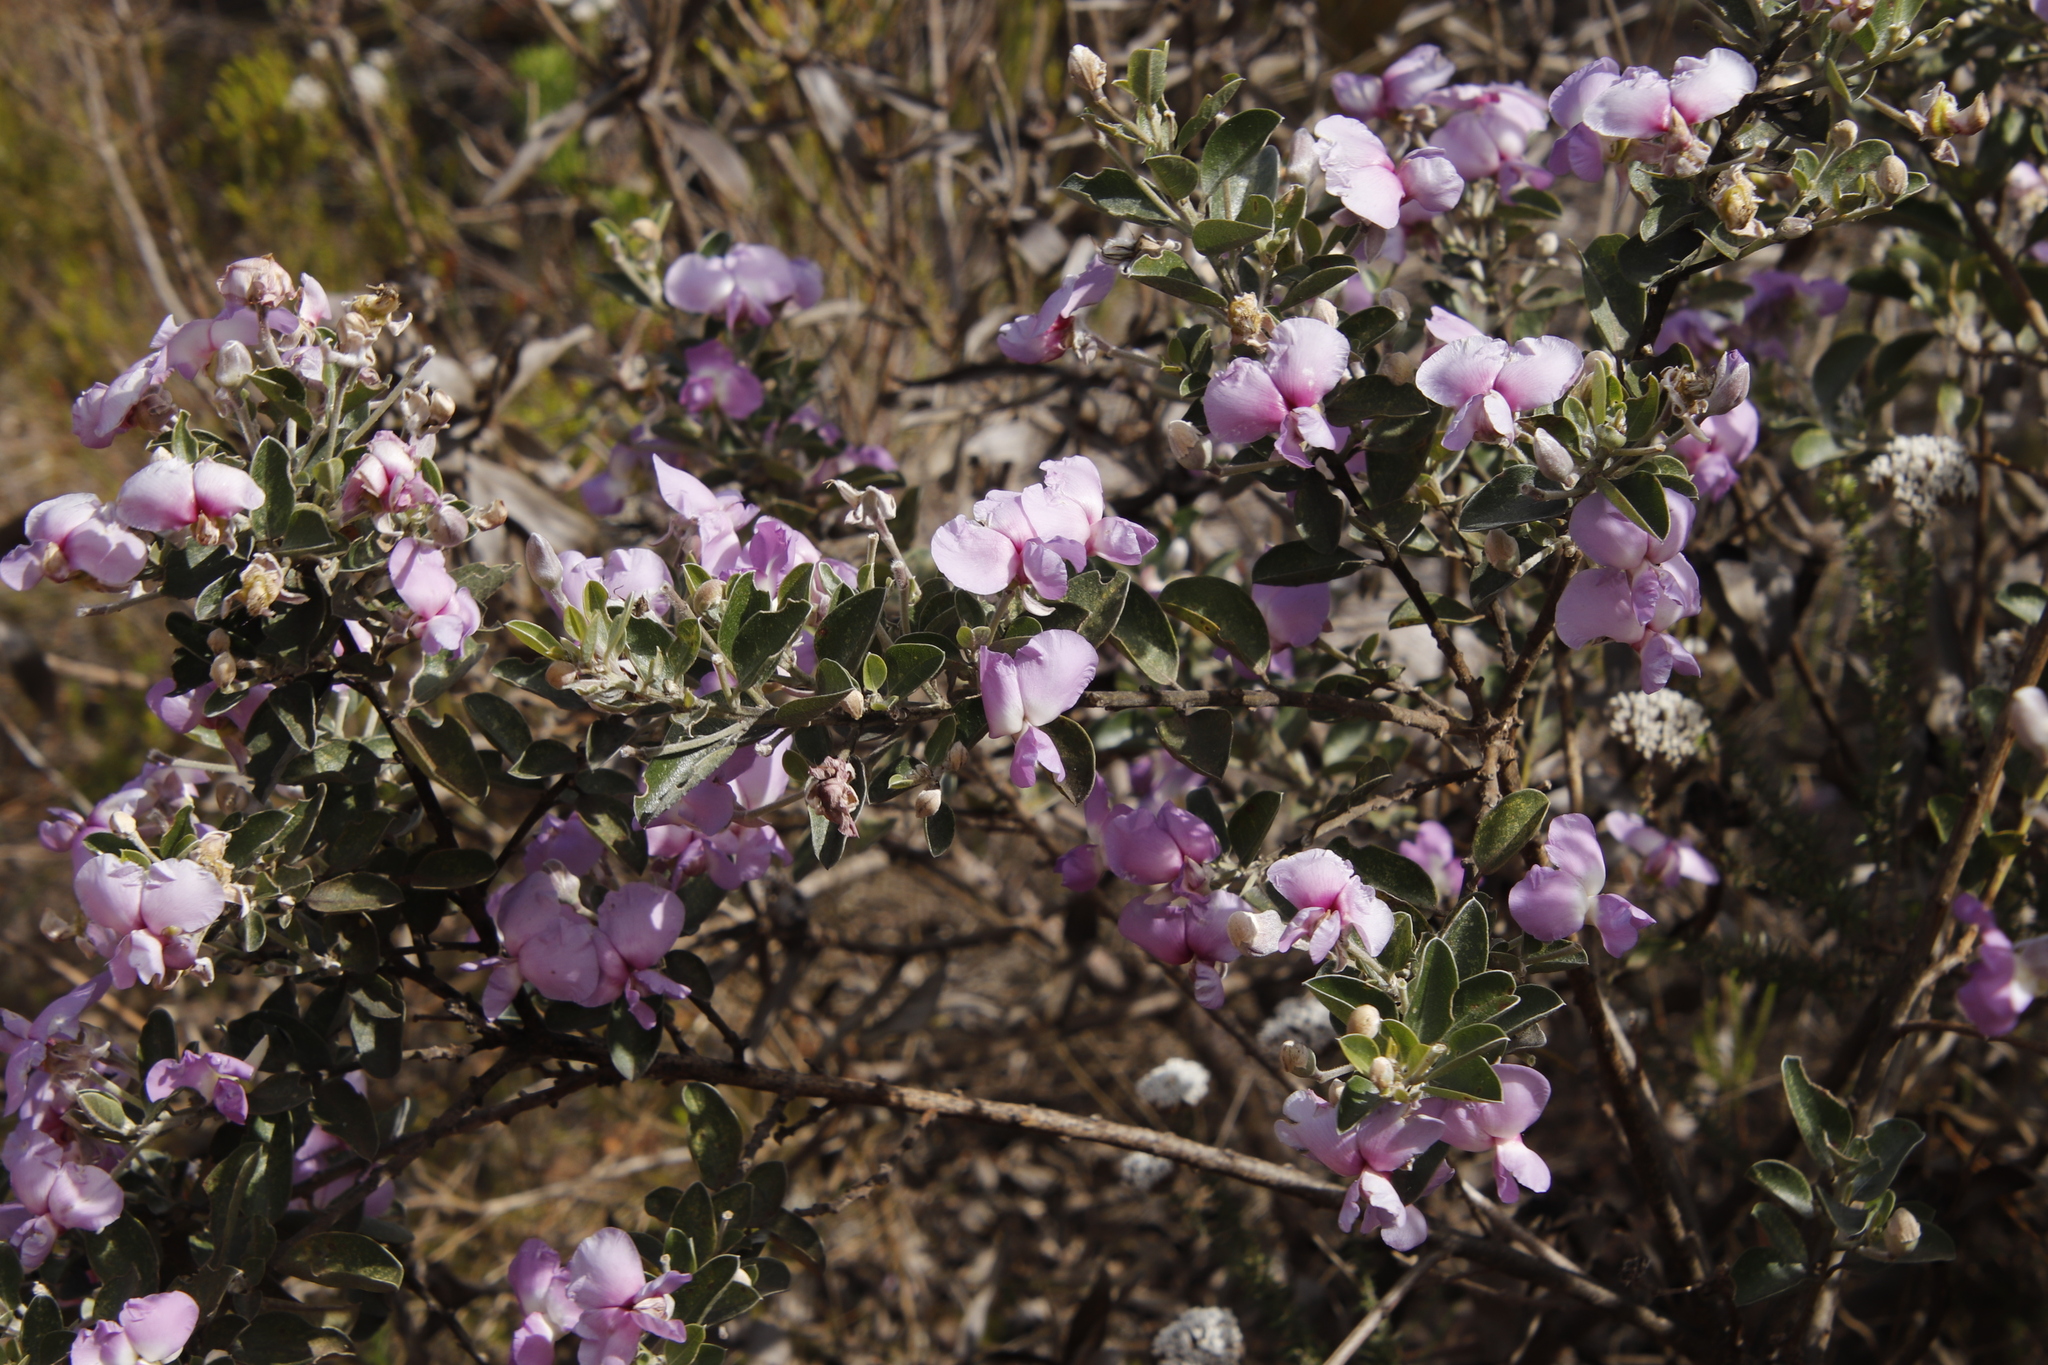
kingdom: Plantae
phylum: Tracheophyta
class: Magnoliopsida
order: Fabales
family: Fabaceae
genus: Podalyria
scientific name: Podalyria calyptrata
